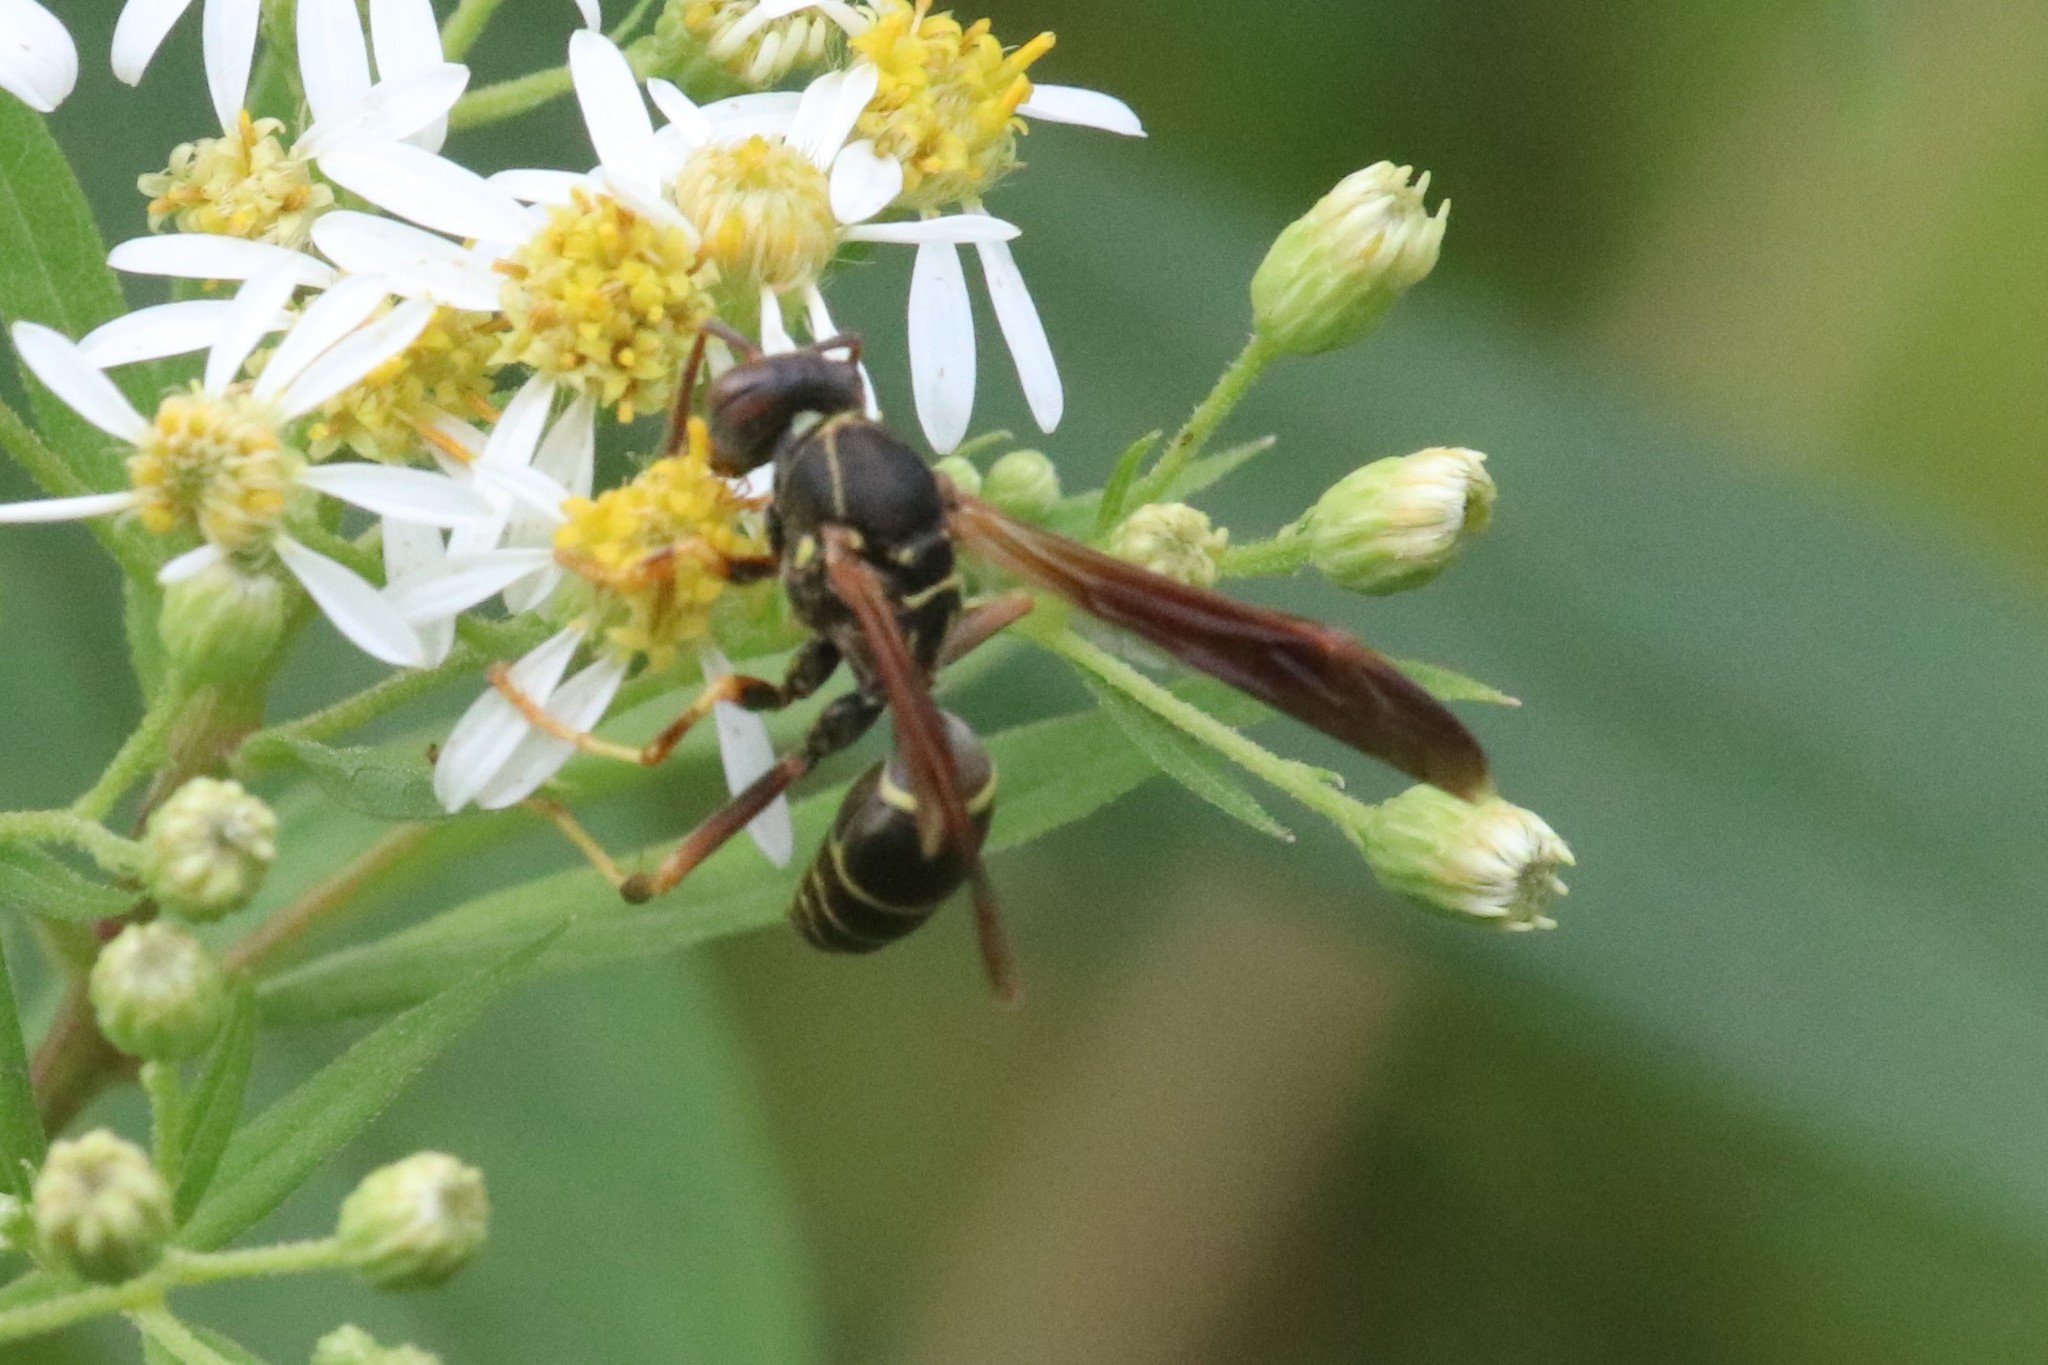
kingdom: Animalia
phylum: Arthropoda
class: Insecta
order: Hymenoptera
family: Eumenidae
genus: Polistes
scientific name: Polistes fuscatus
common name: Dark paper wasp
